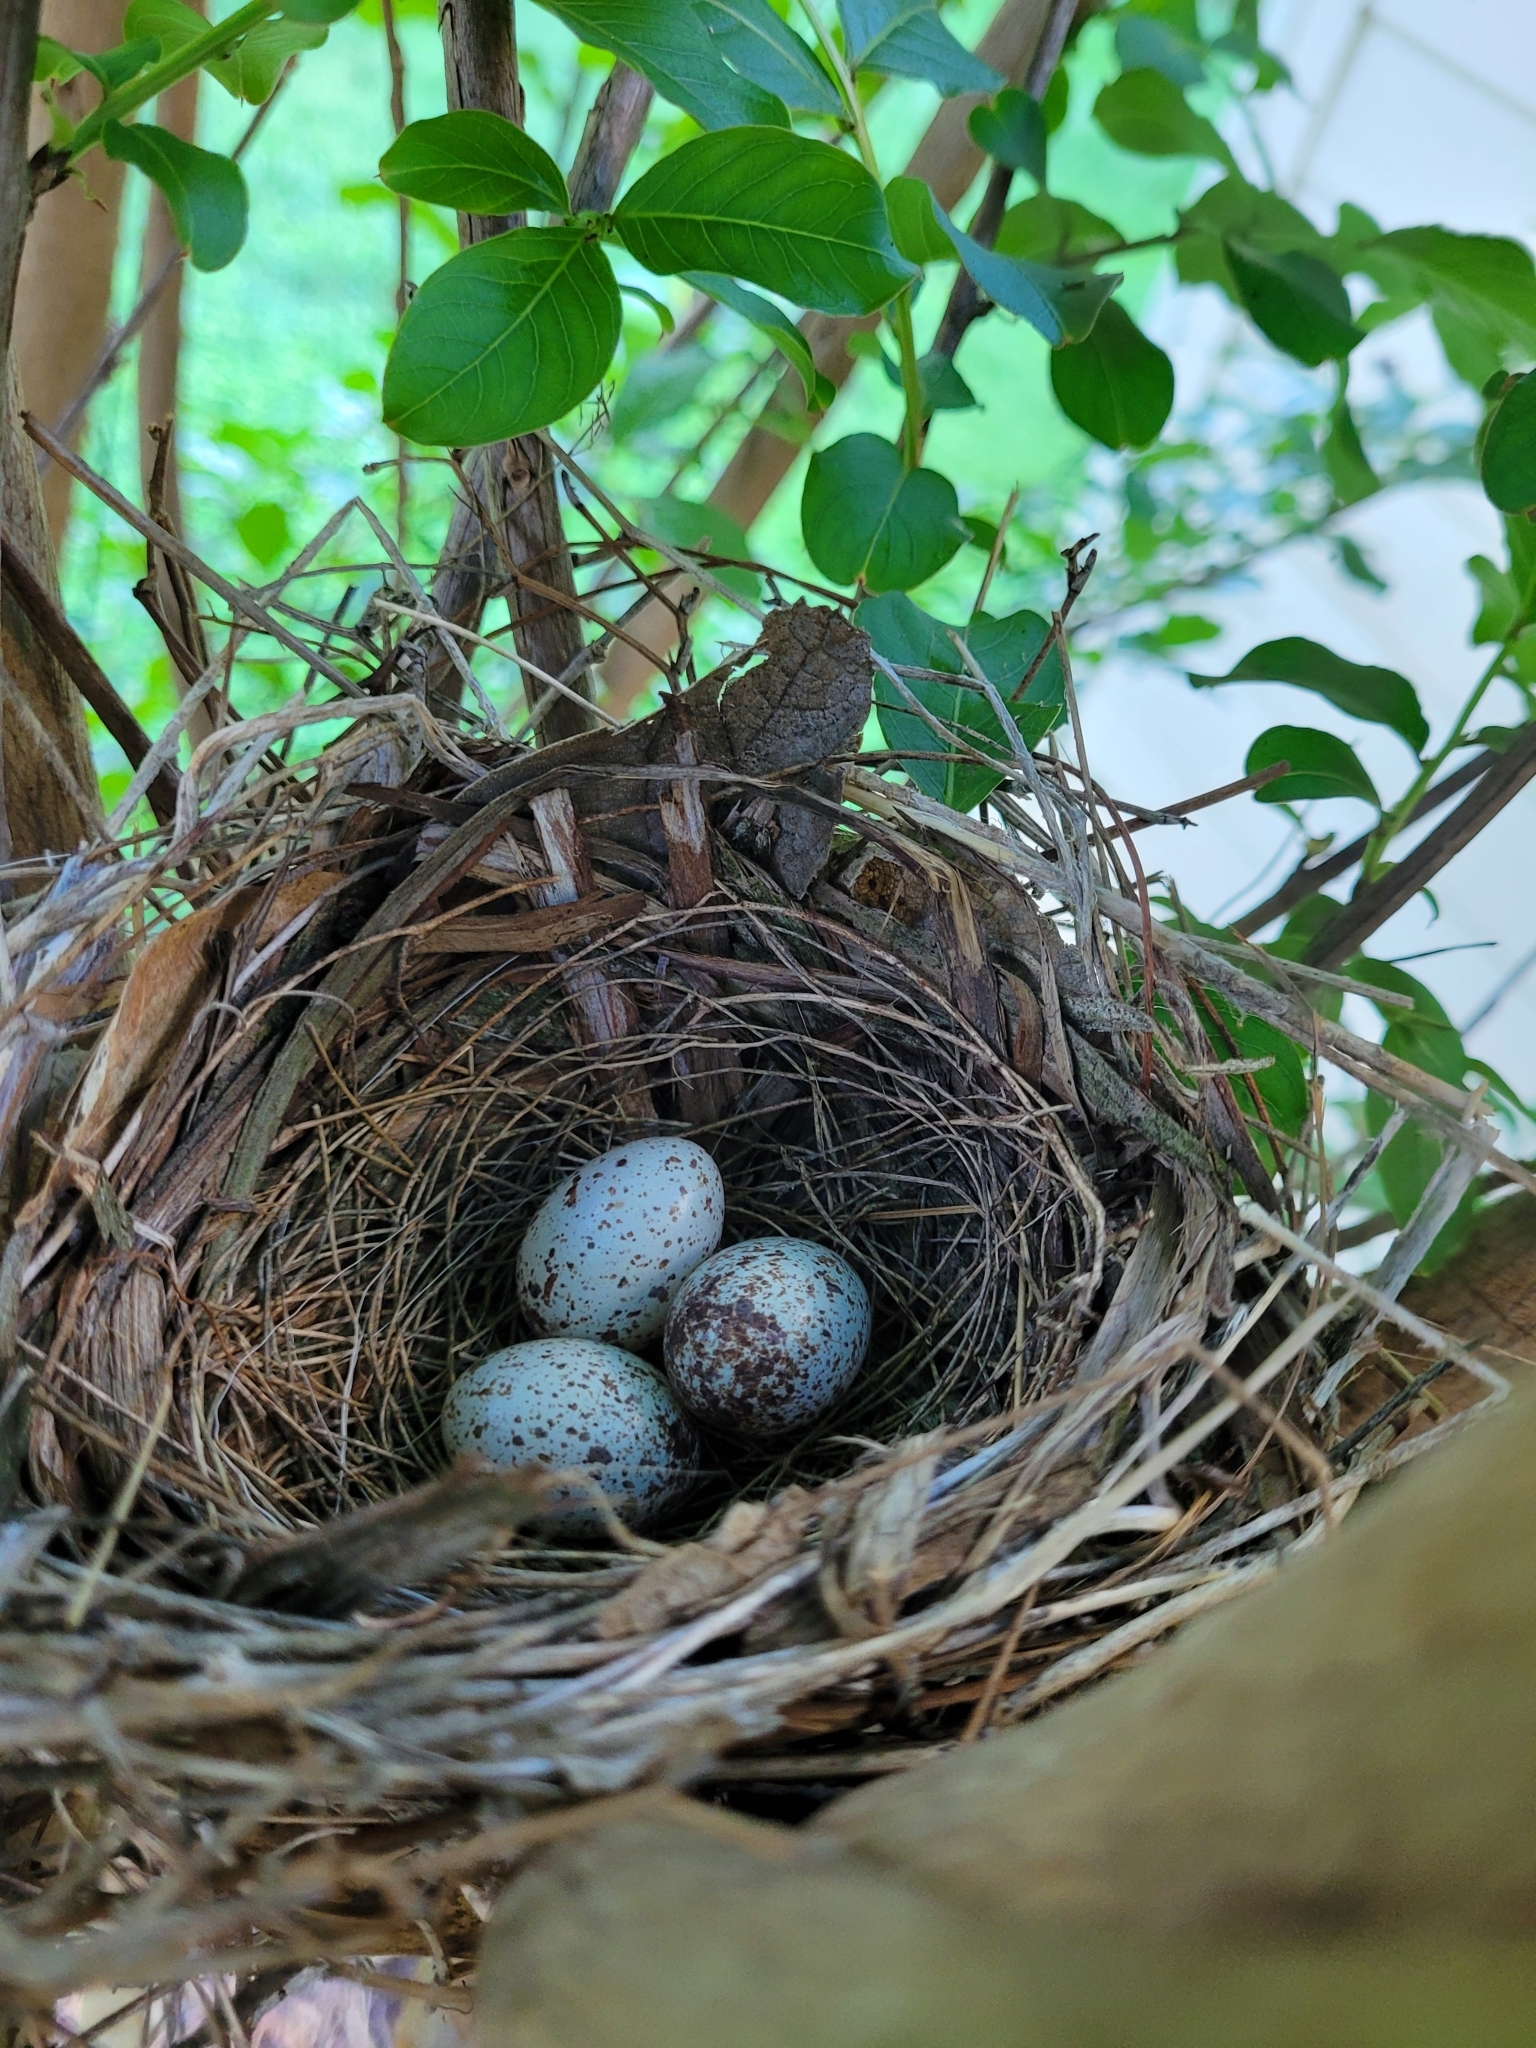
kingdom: Animalia
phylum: Chordata
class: Aves
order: Passeriformes
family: Cardinalidae
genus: Cardinalis
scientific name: Cardinalis cardinalis
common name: Northern cardinal
